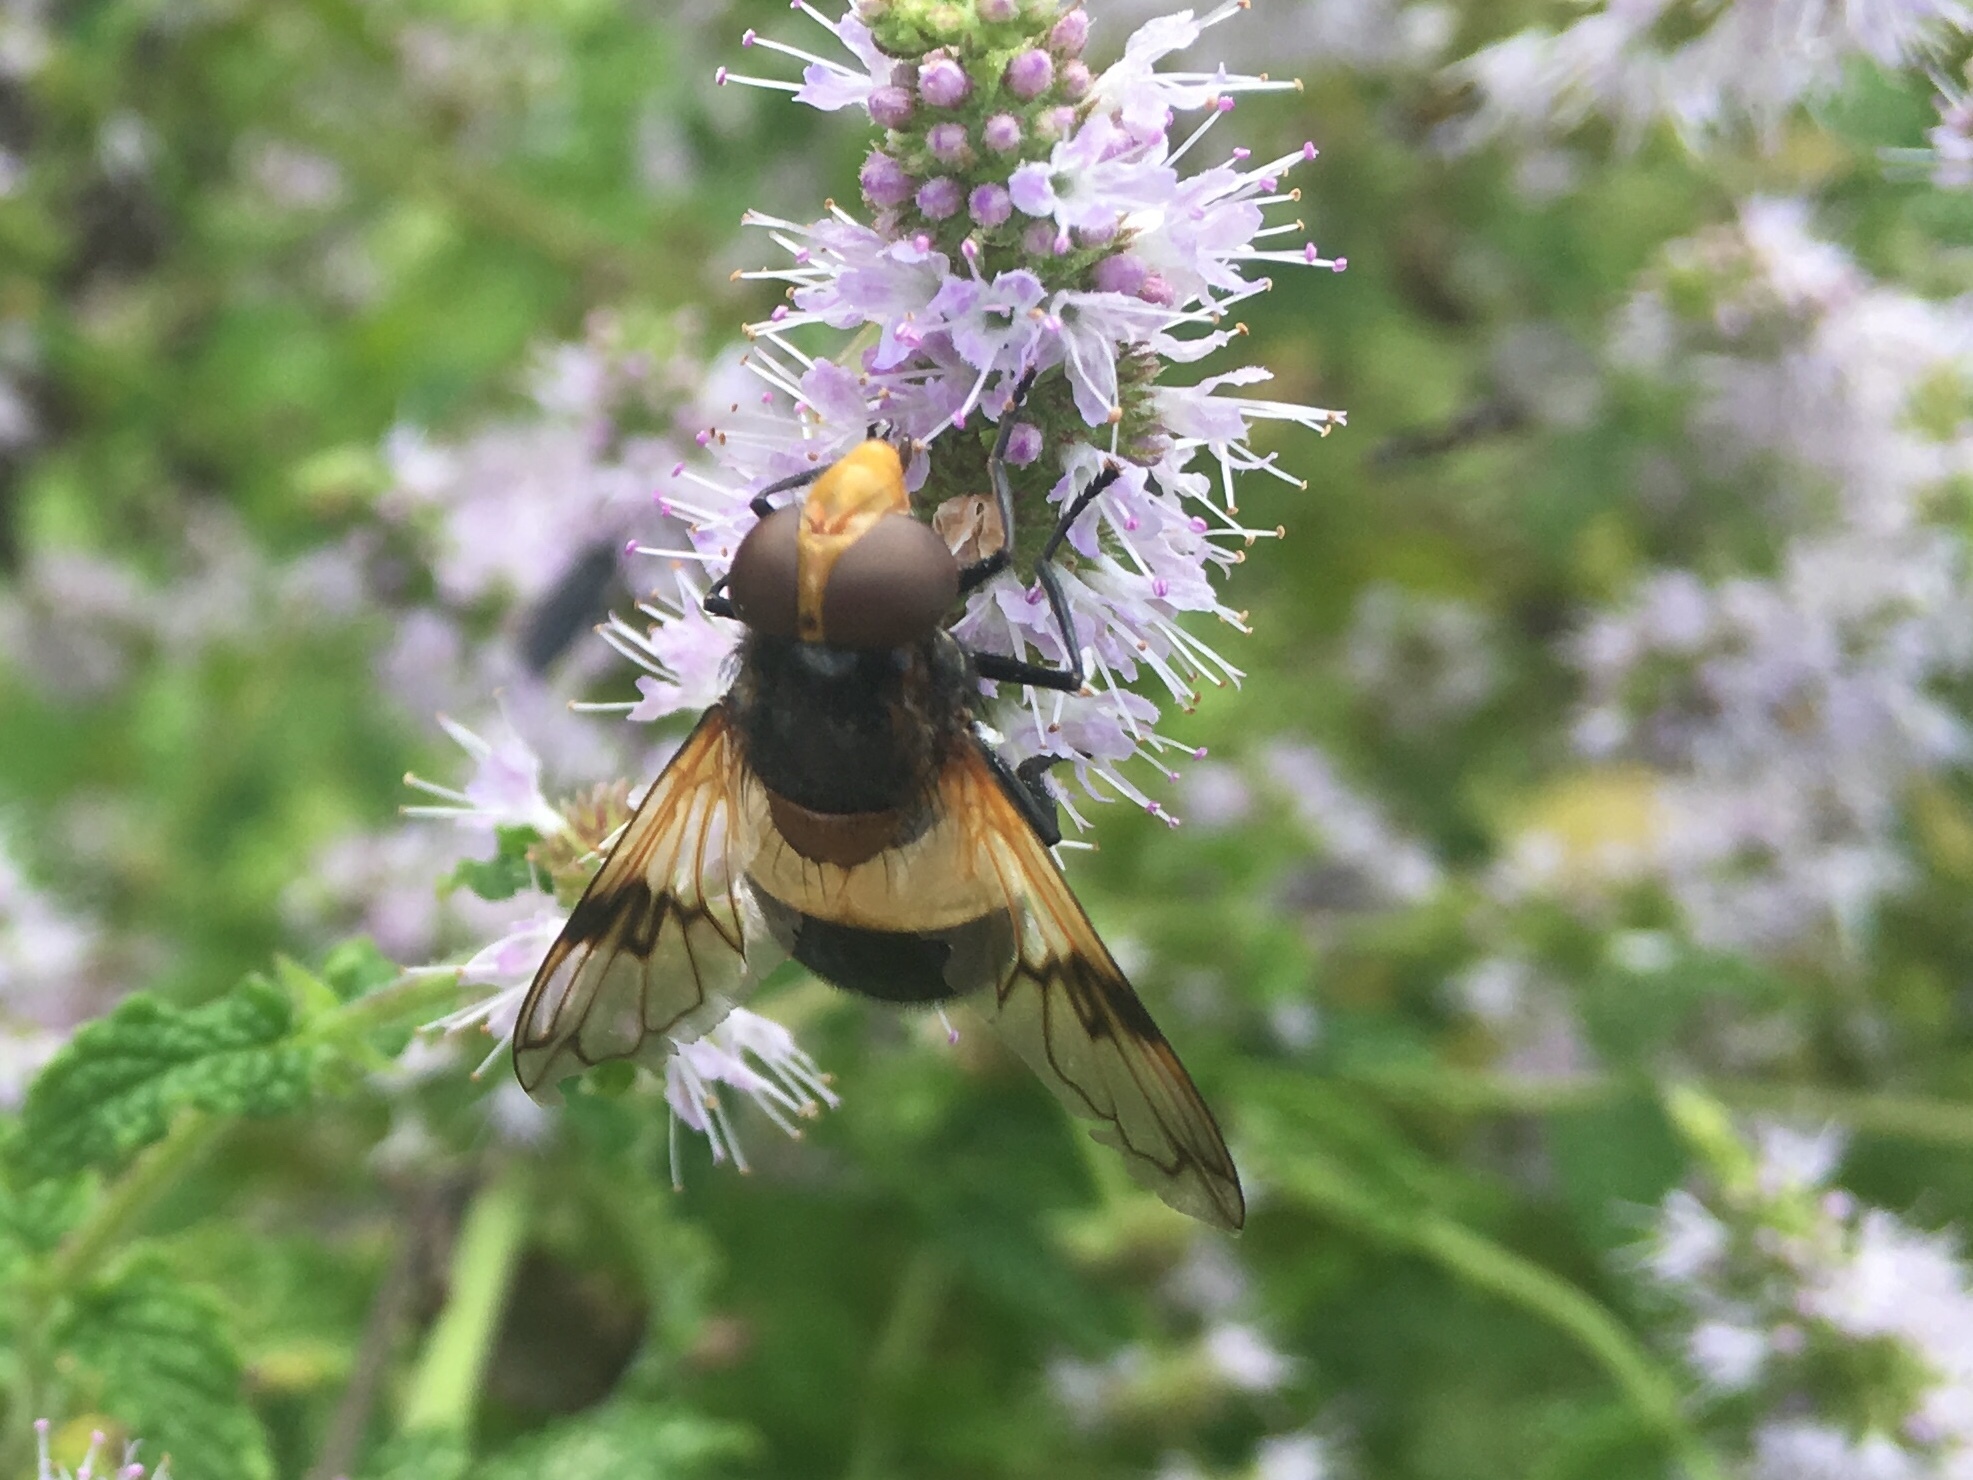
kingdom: Animalia
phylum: Arthropoda
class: Insecta
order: Diptera
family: Syrphidae
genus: Volucella
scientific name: Volucella pellucens
